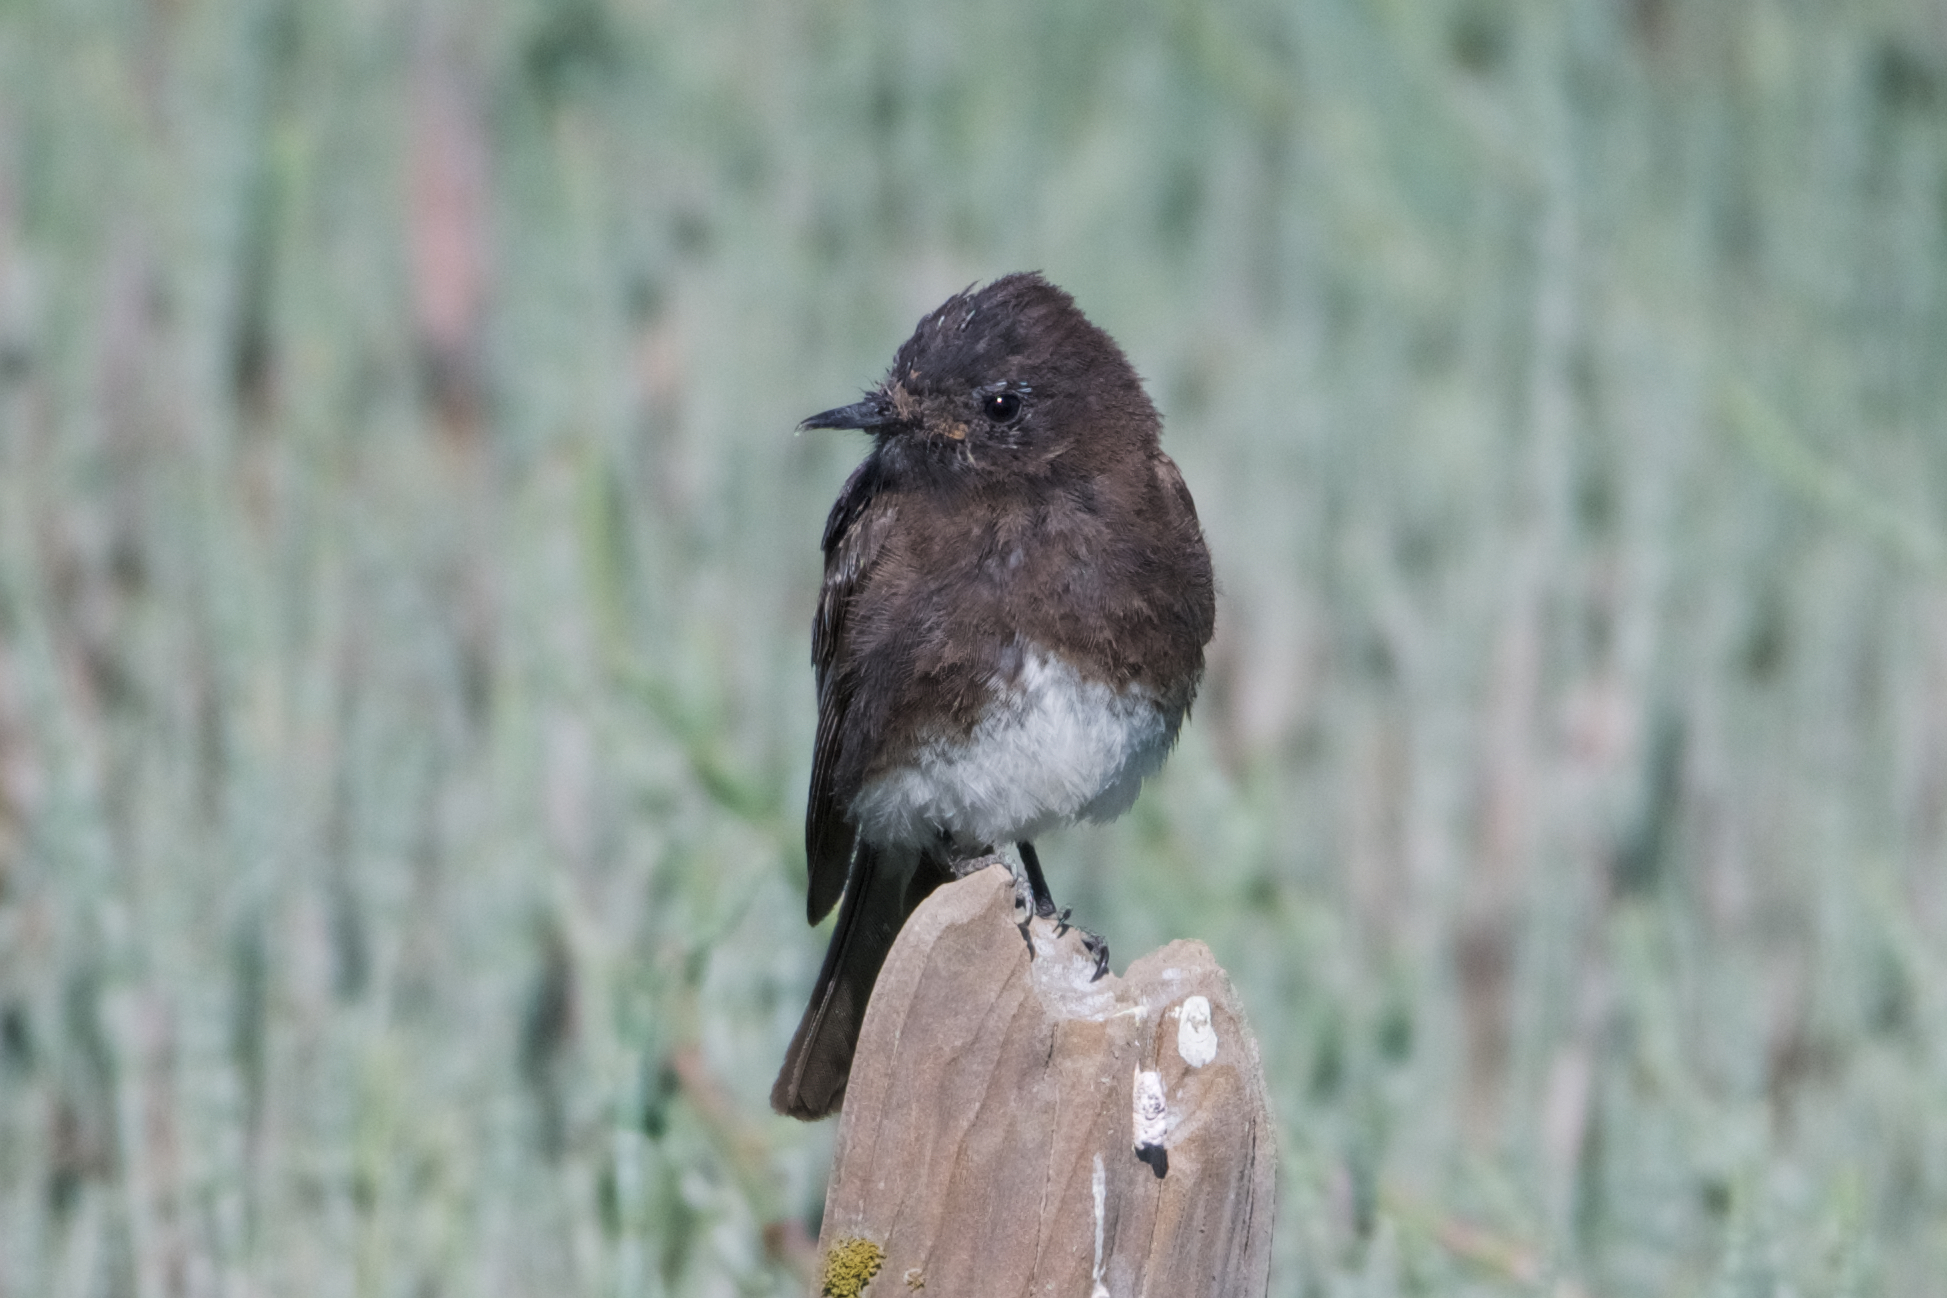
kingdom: Animalia
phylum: Chordata
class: Aves
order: Passeriformes
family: Tyrannidae
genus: Sayornis
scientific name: Sayornis nigricans
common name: Black phoebe
